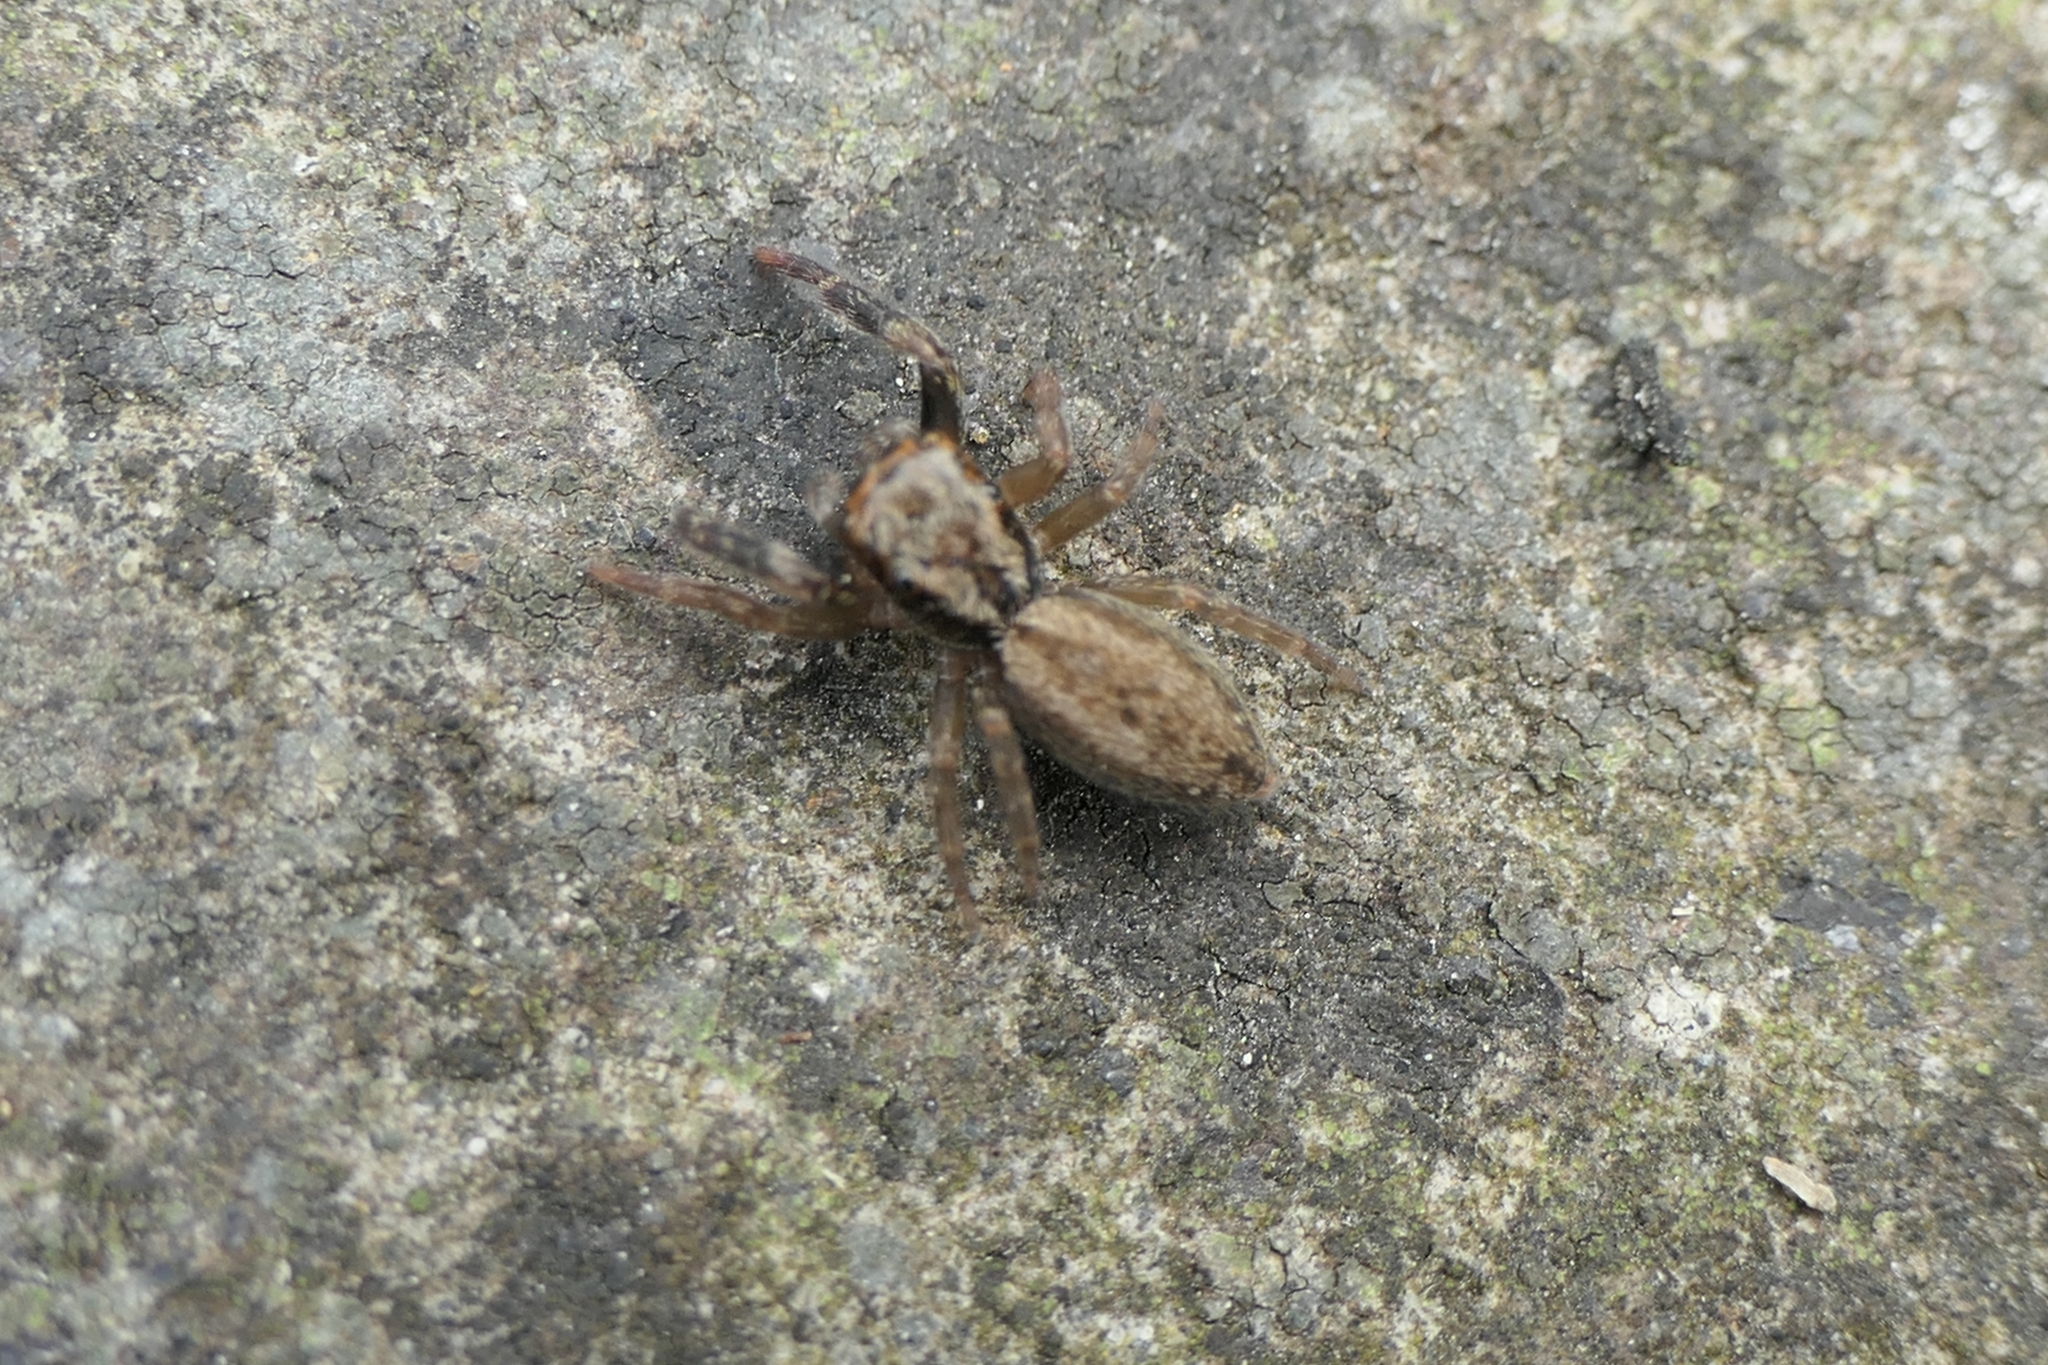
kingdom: Animalia
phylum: Arthropoda
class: Arachnida
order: Araneae
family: Salticidae
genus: Trite
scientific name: Trite auricoma
